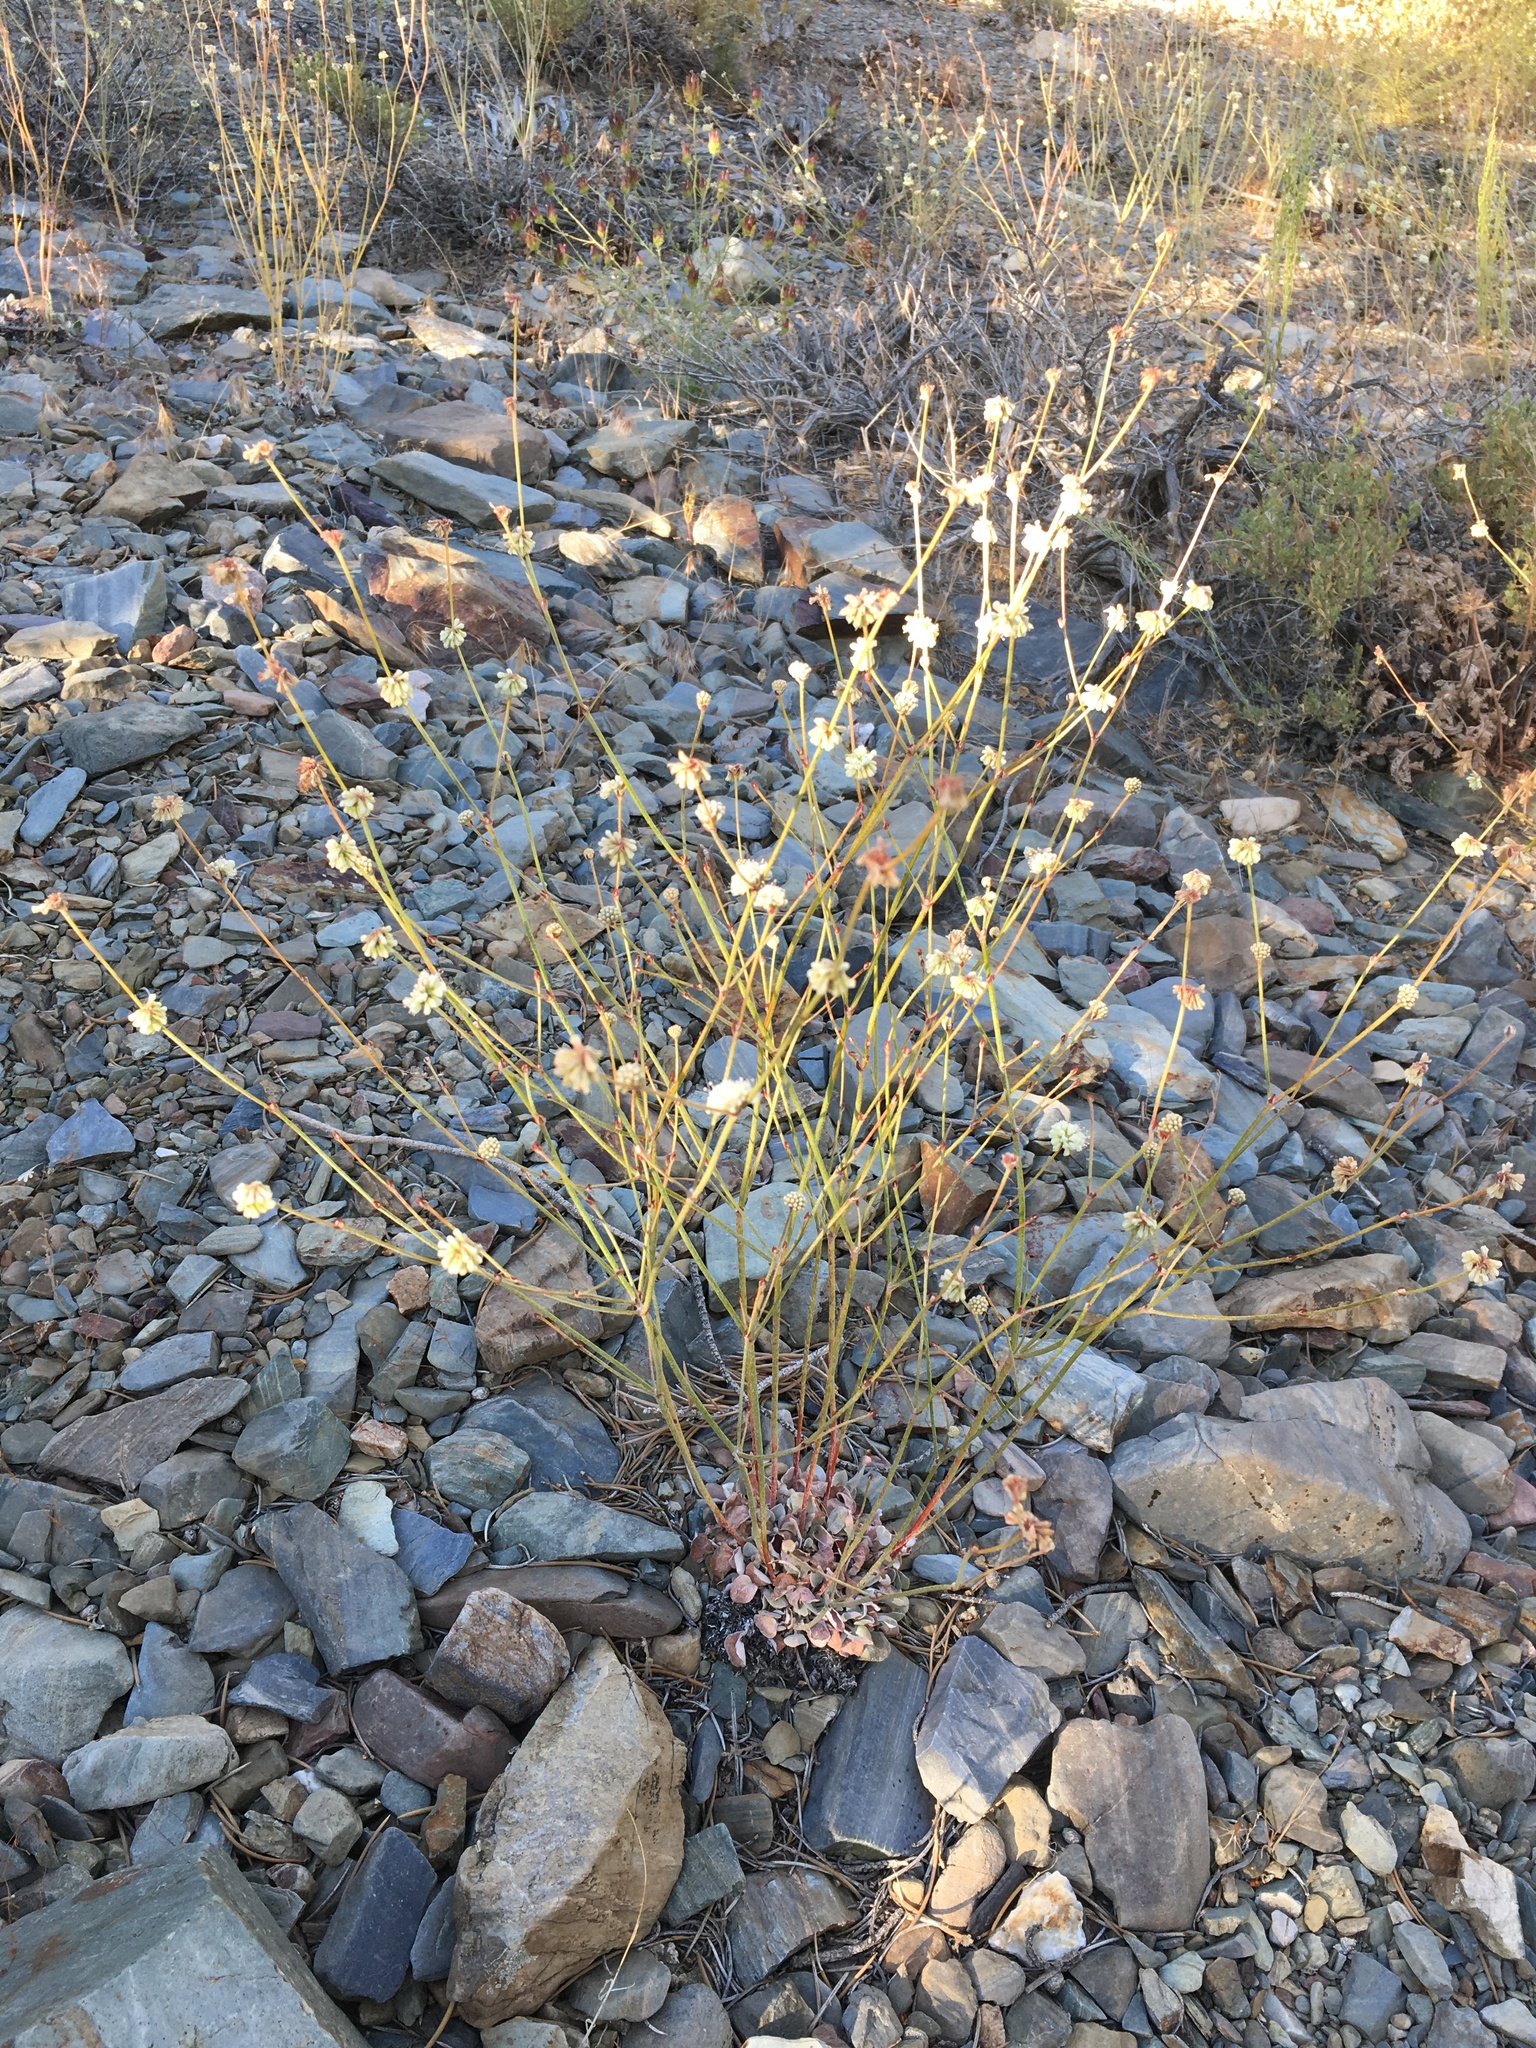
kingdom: Plantae
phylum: Tracheophyta
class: Magnoliopsida
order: Caryophyllales
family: Polygonaceae
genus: Eriogonum
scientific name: Eriogonum mensicola
